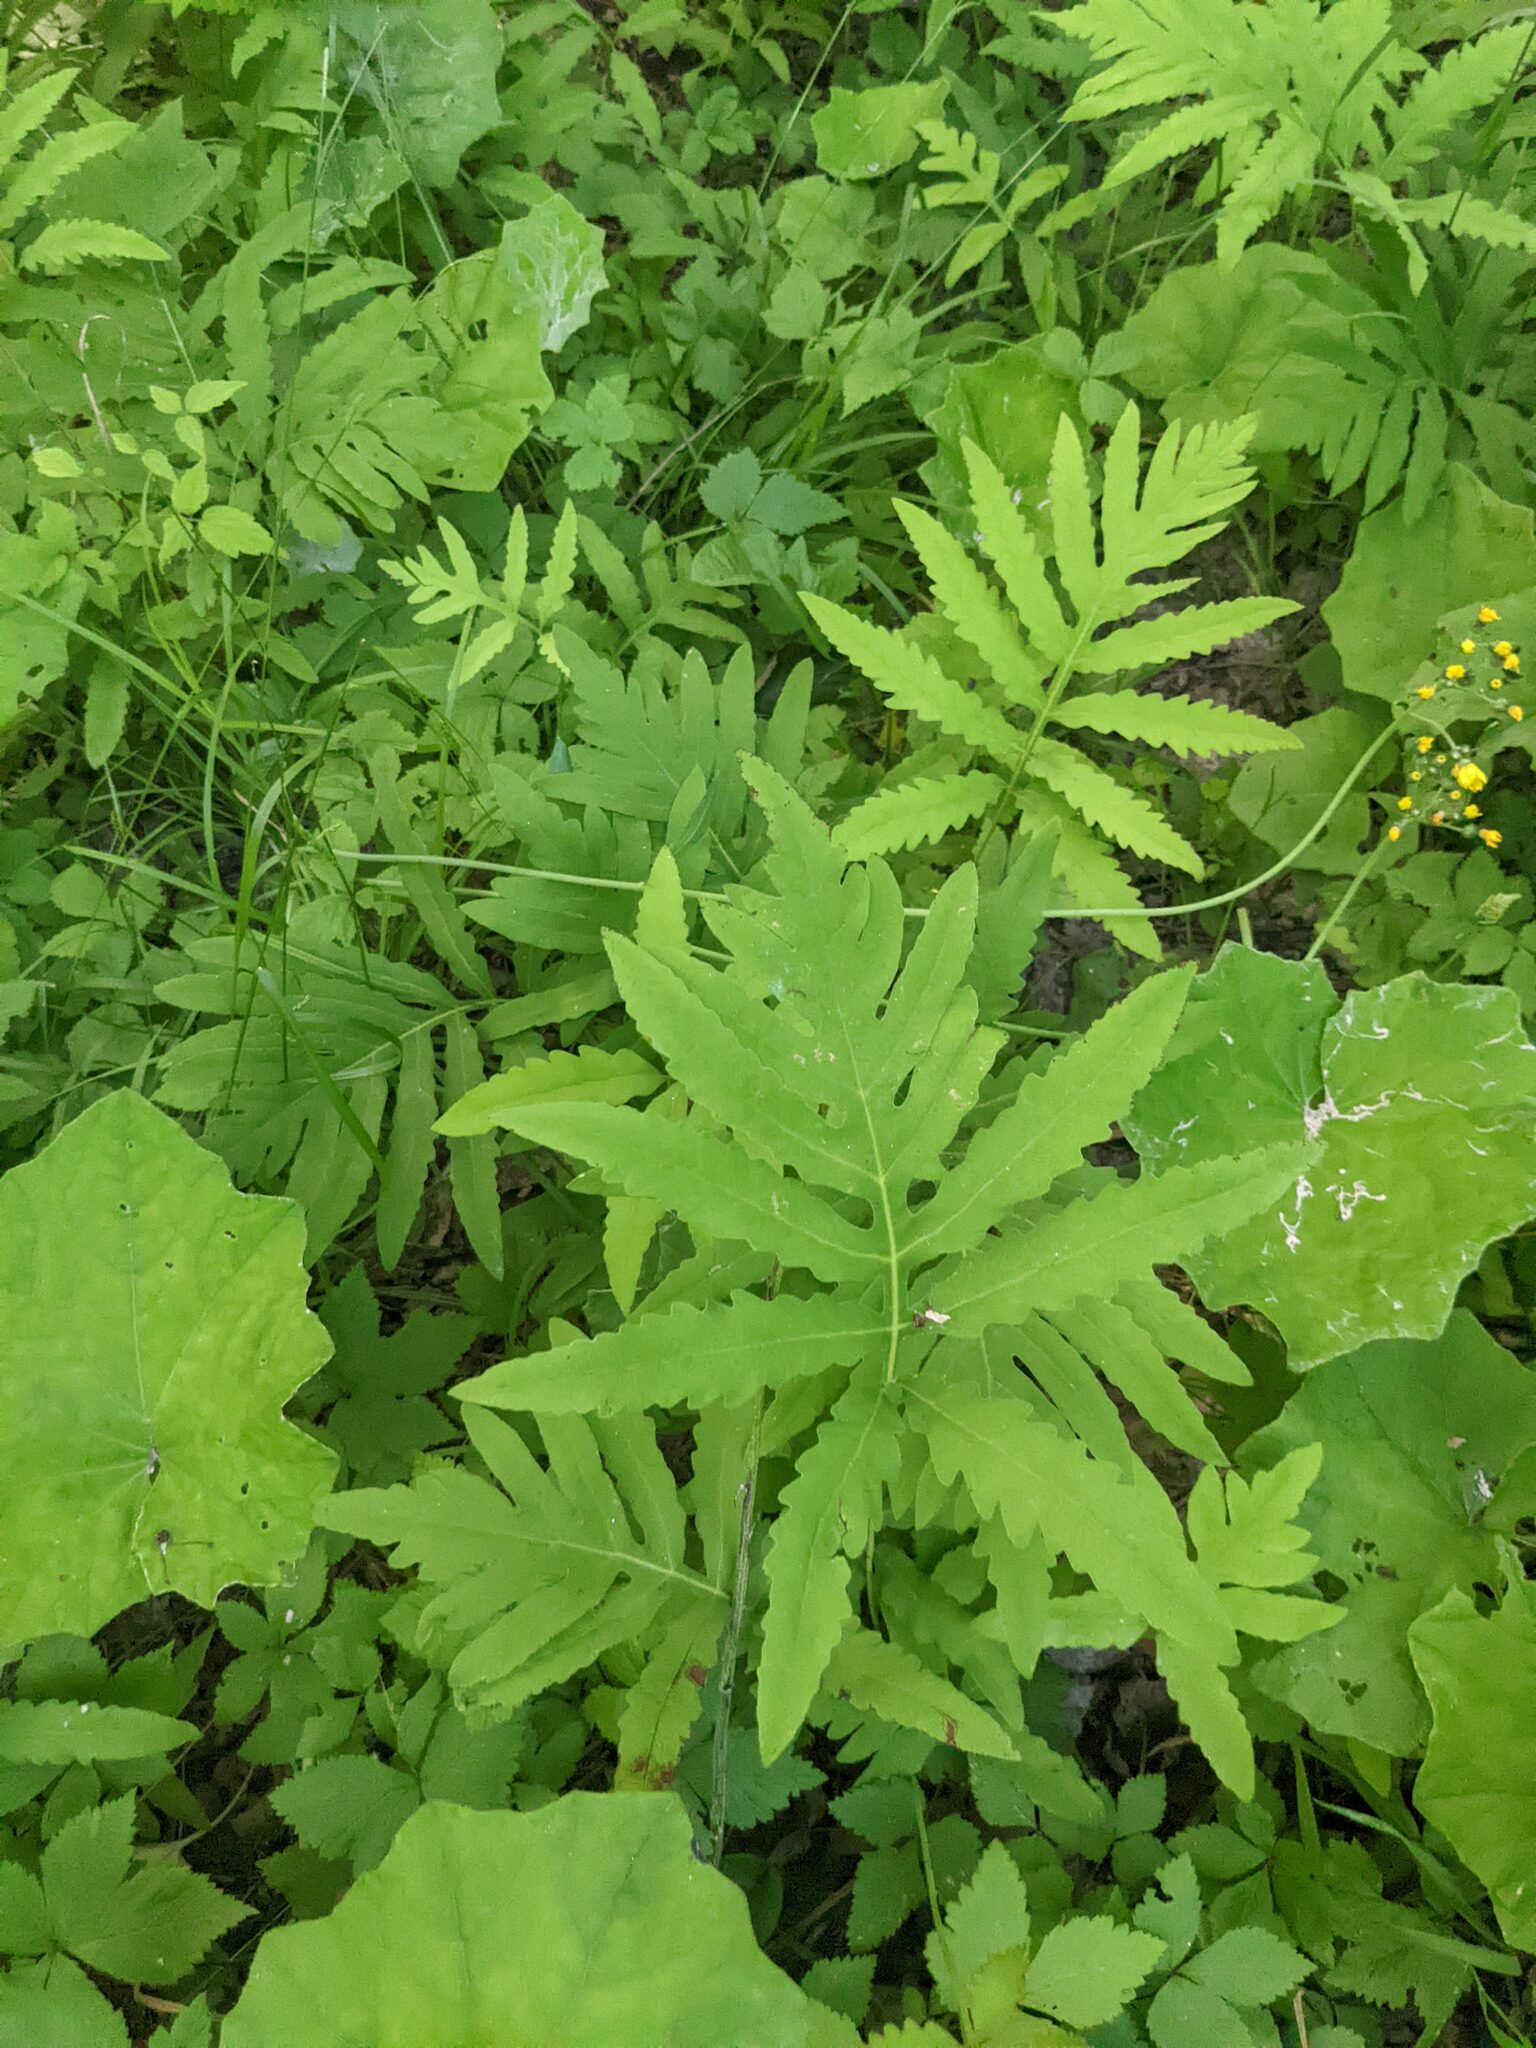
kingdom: Plantae
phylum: Tracheophyta
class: Polypodiopsida
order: Polypodiales
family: Onocleaceae
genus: Onoclea
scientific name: Onoclea sensibilis
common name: Sensitive fern
